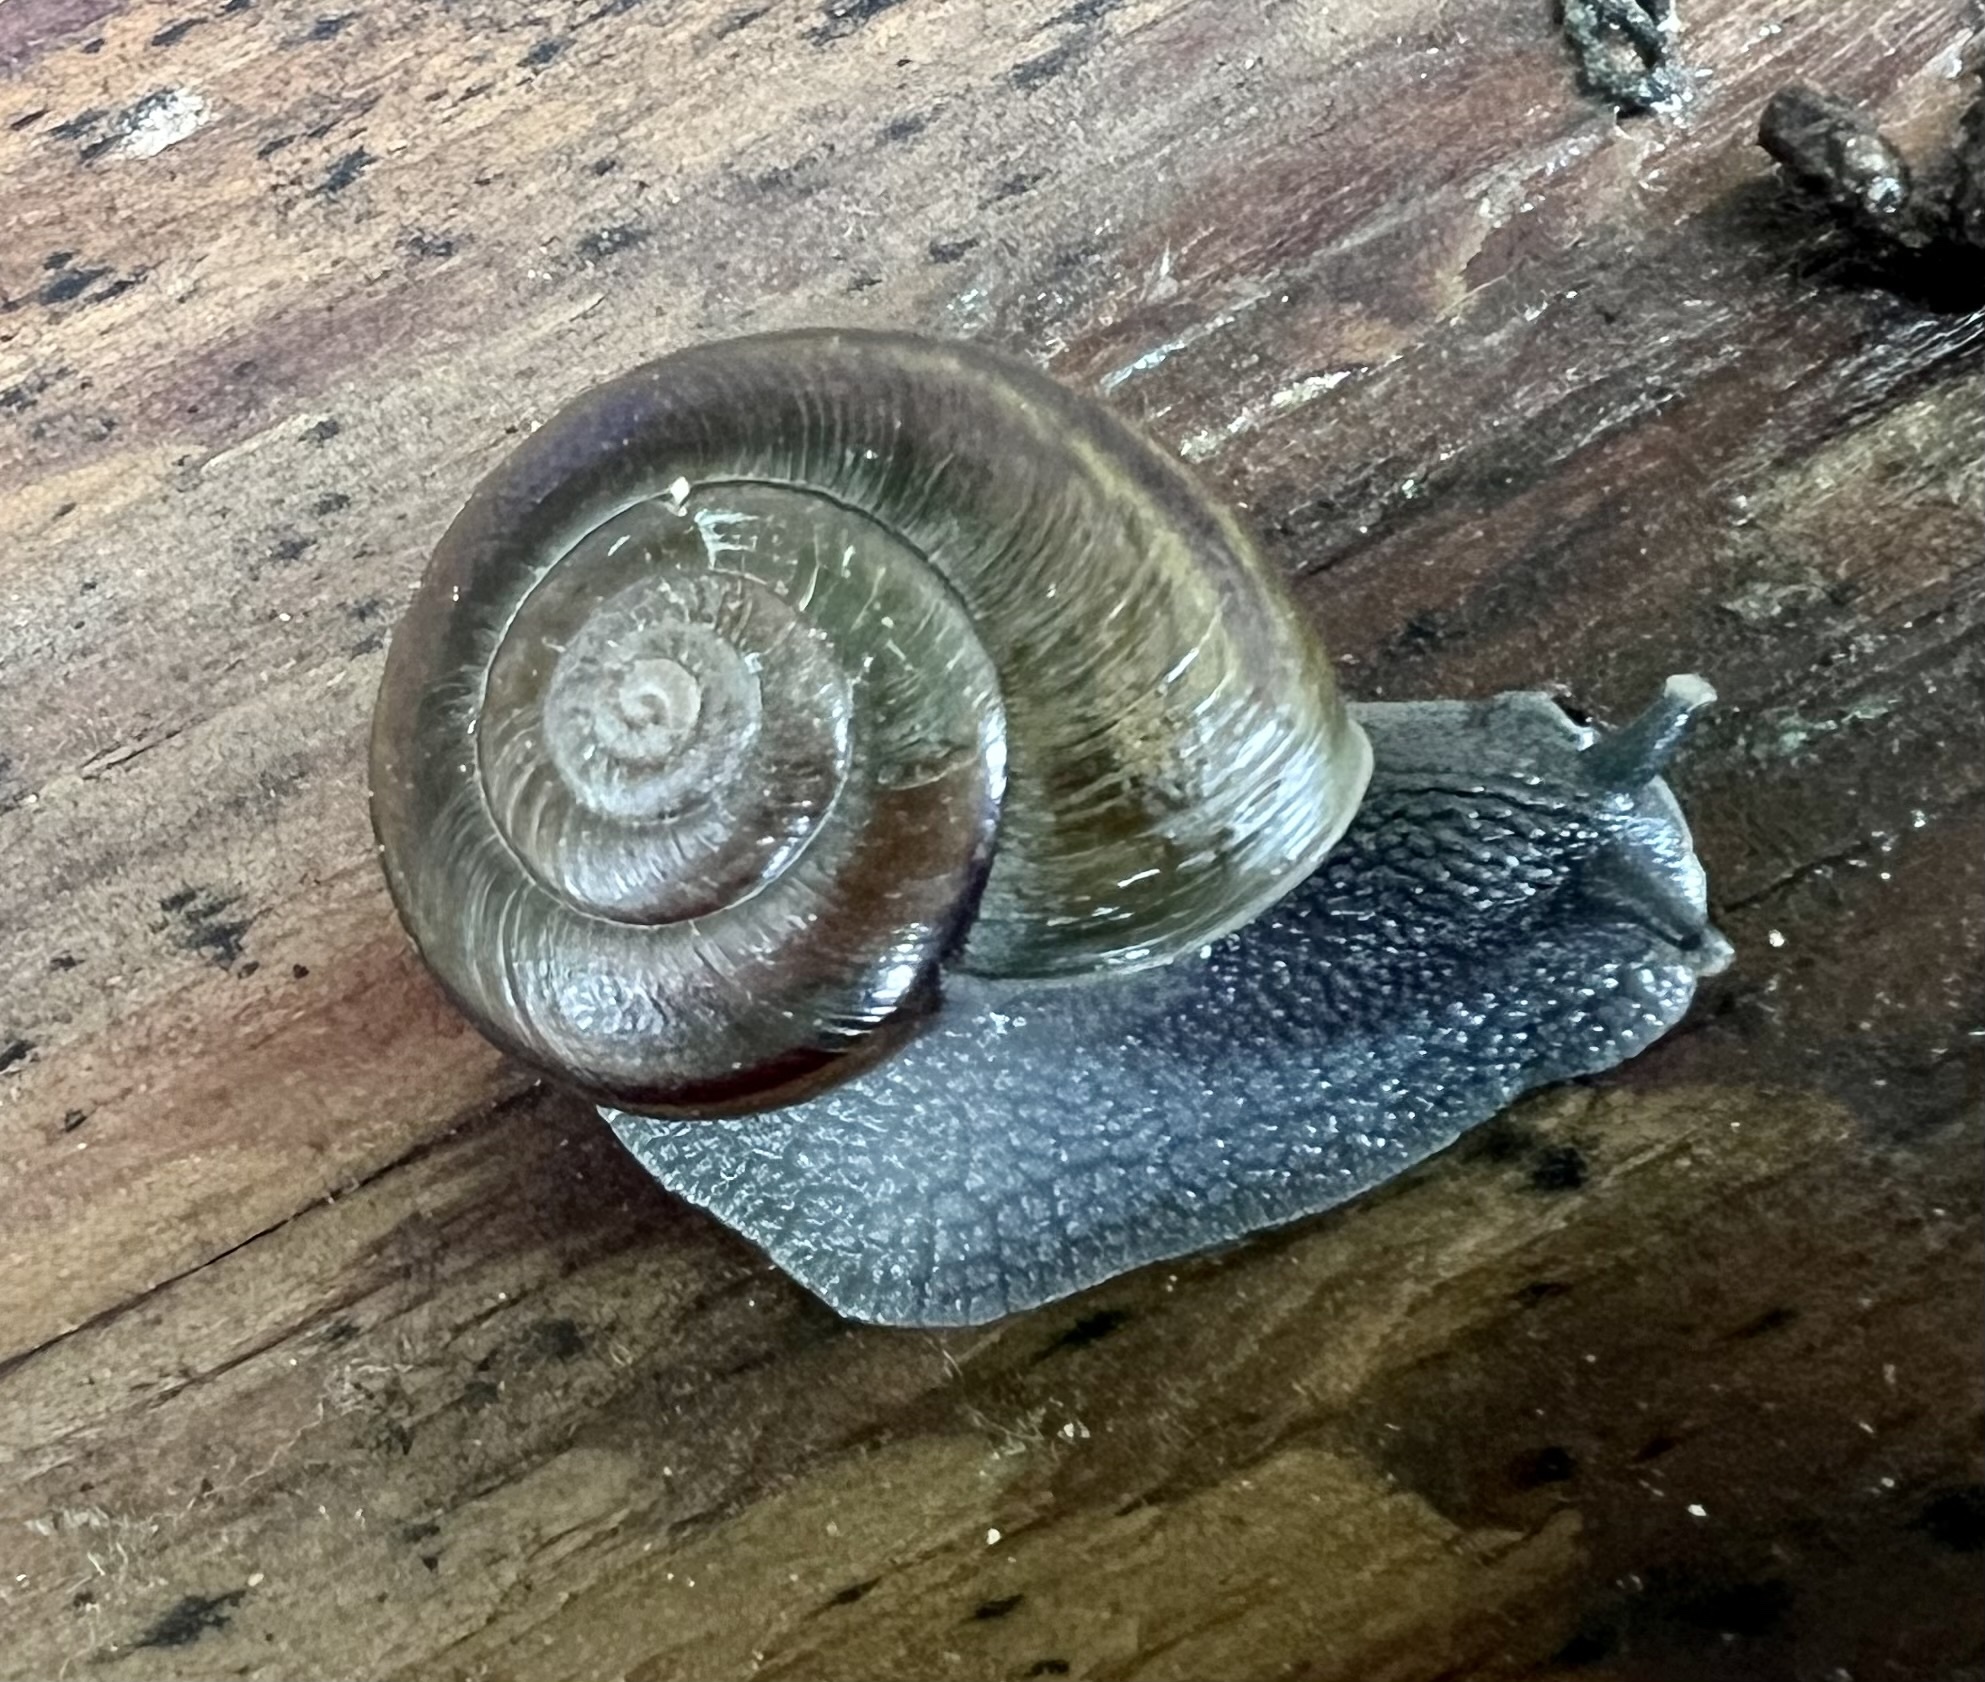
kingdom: Animalia
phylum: Mollusca
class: Gastropoda
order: Stylommatophora
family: Xanthonychidae
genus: Helminthoglypta
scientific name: Helminthoglypta tudiculata
